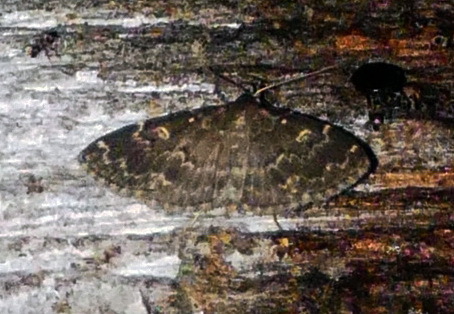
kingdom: Animalia
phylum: Arthropoda
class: Insecta
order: Lepidoptera
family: Erebidae
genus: Idia
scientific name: Idia scobialis
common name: Smoky idia moth
